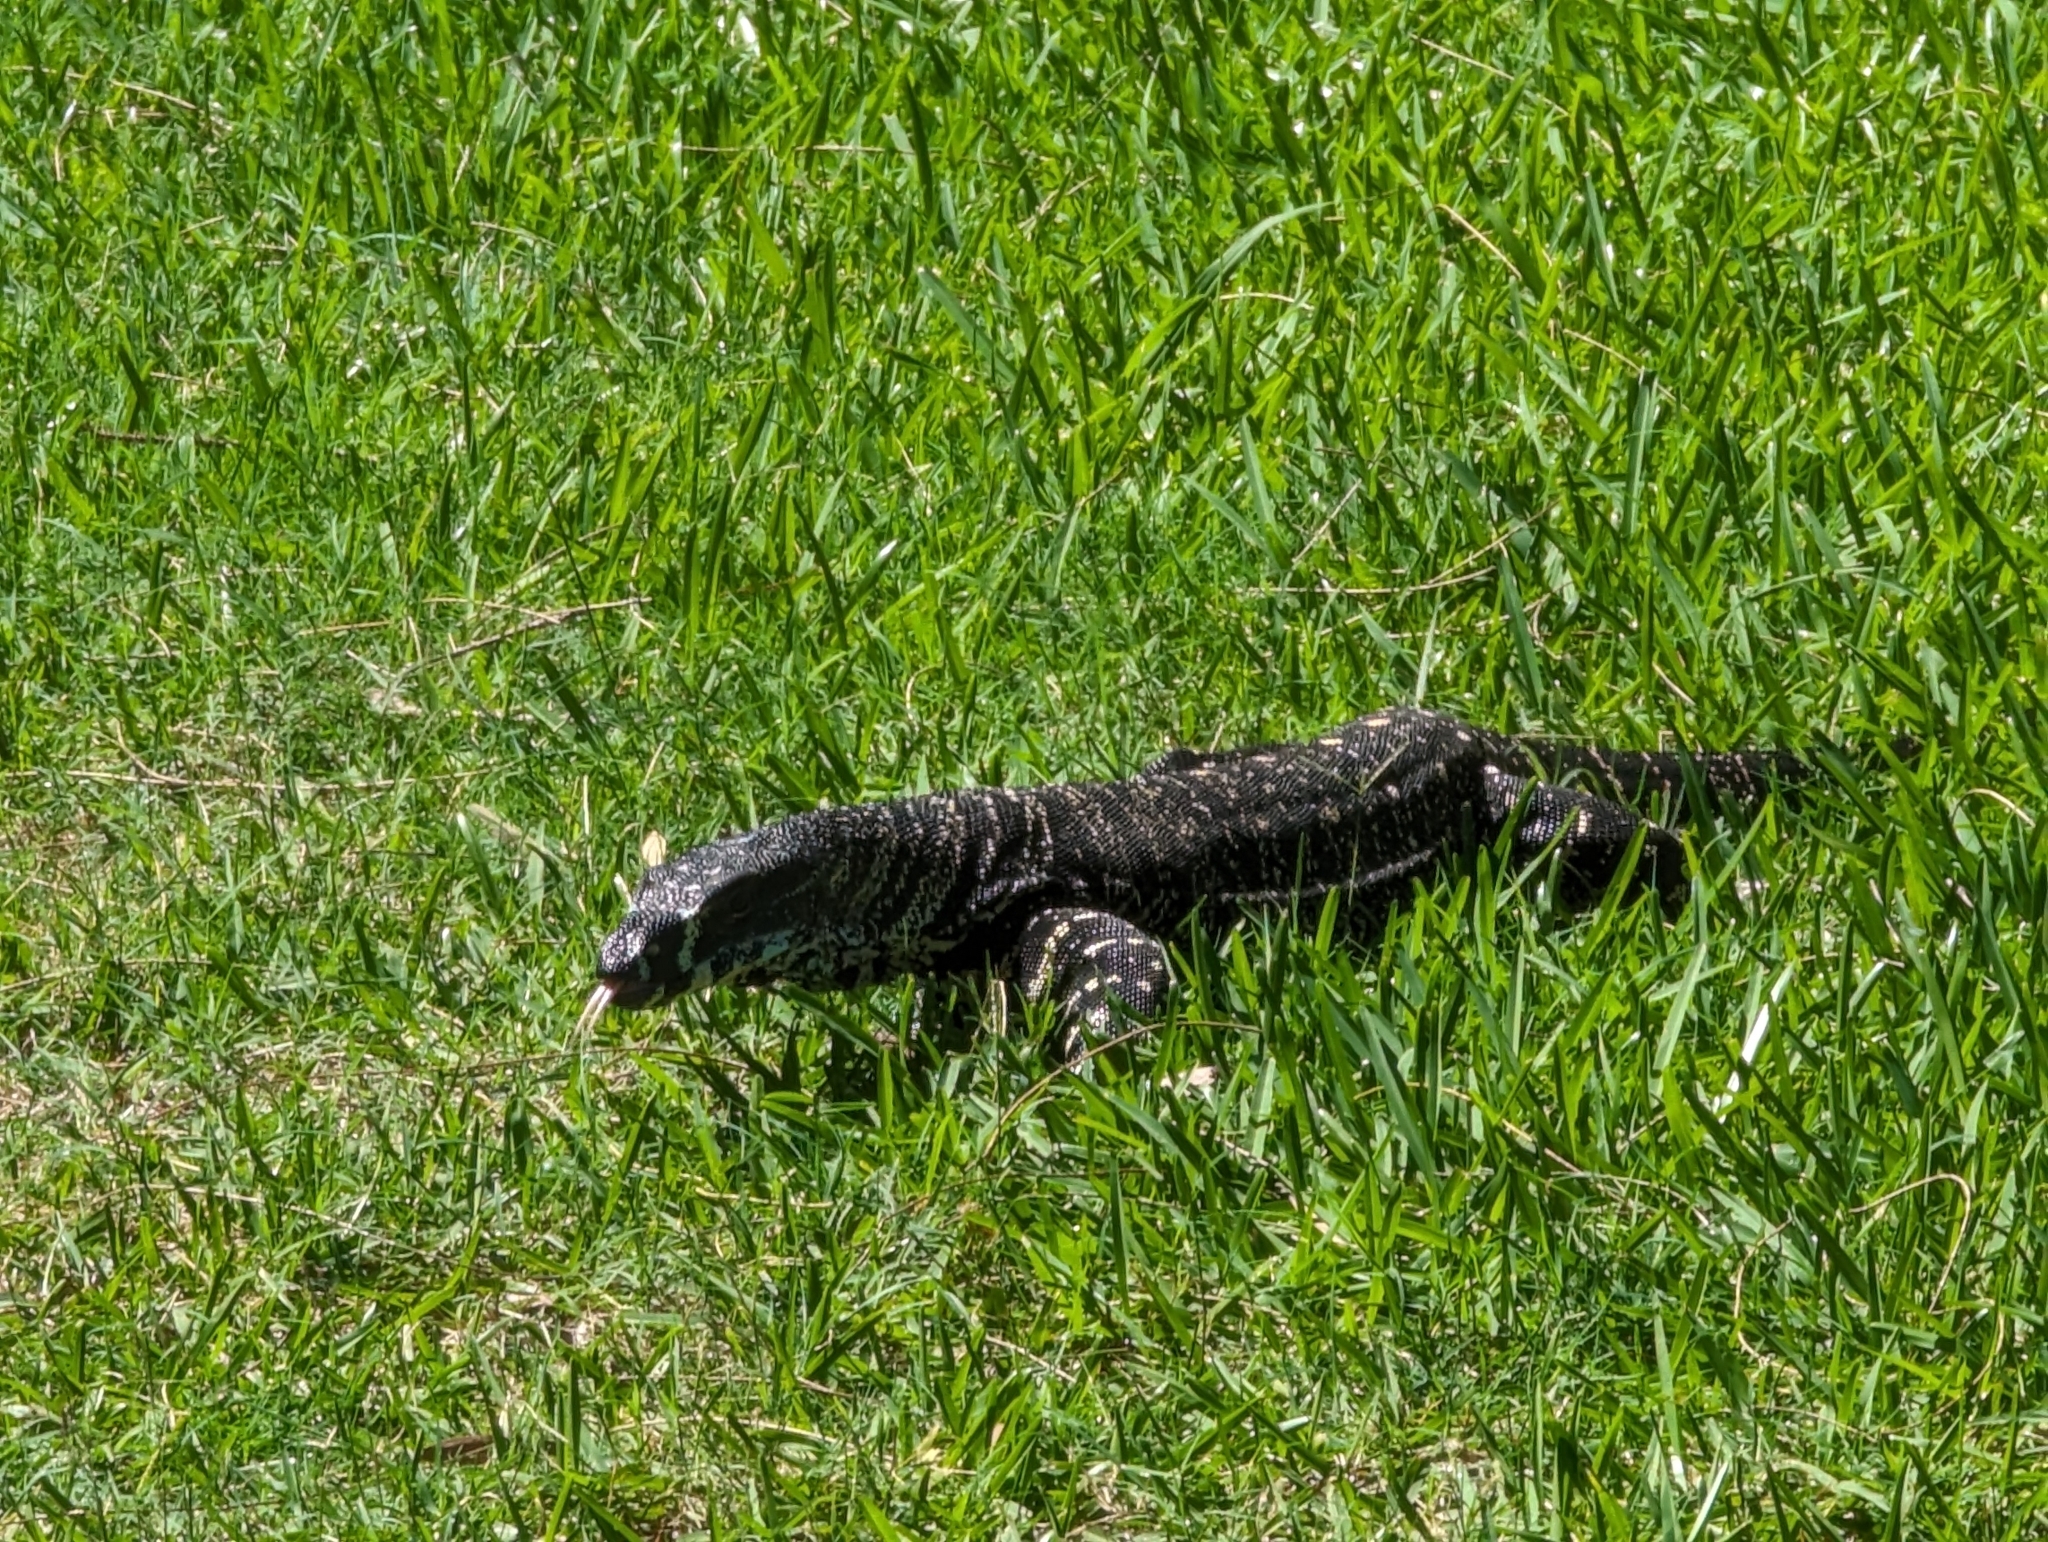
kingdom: Animalia
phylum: Chordata
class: Squamata
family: Varanidae
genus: Varanus
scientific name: Varanus varius
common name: Lace monitor
